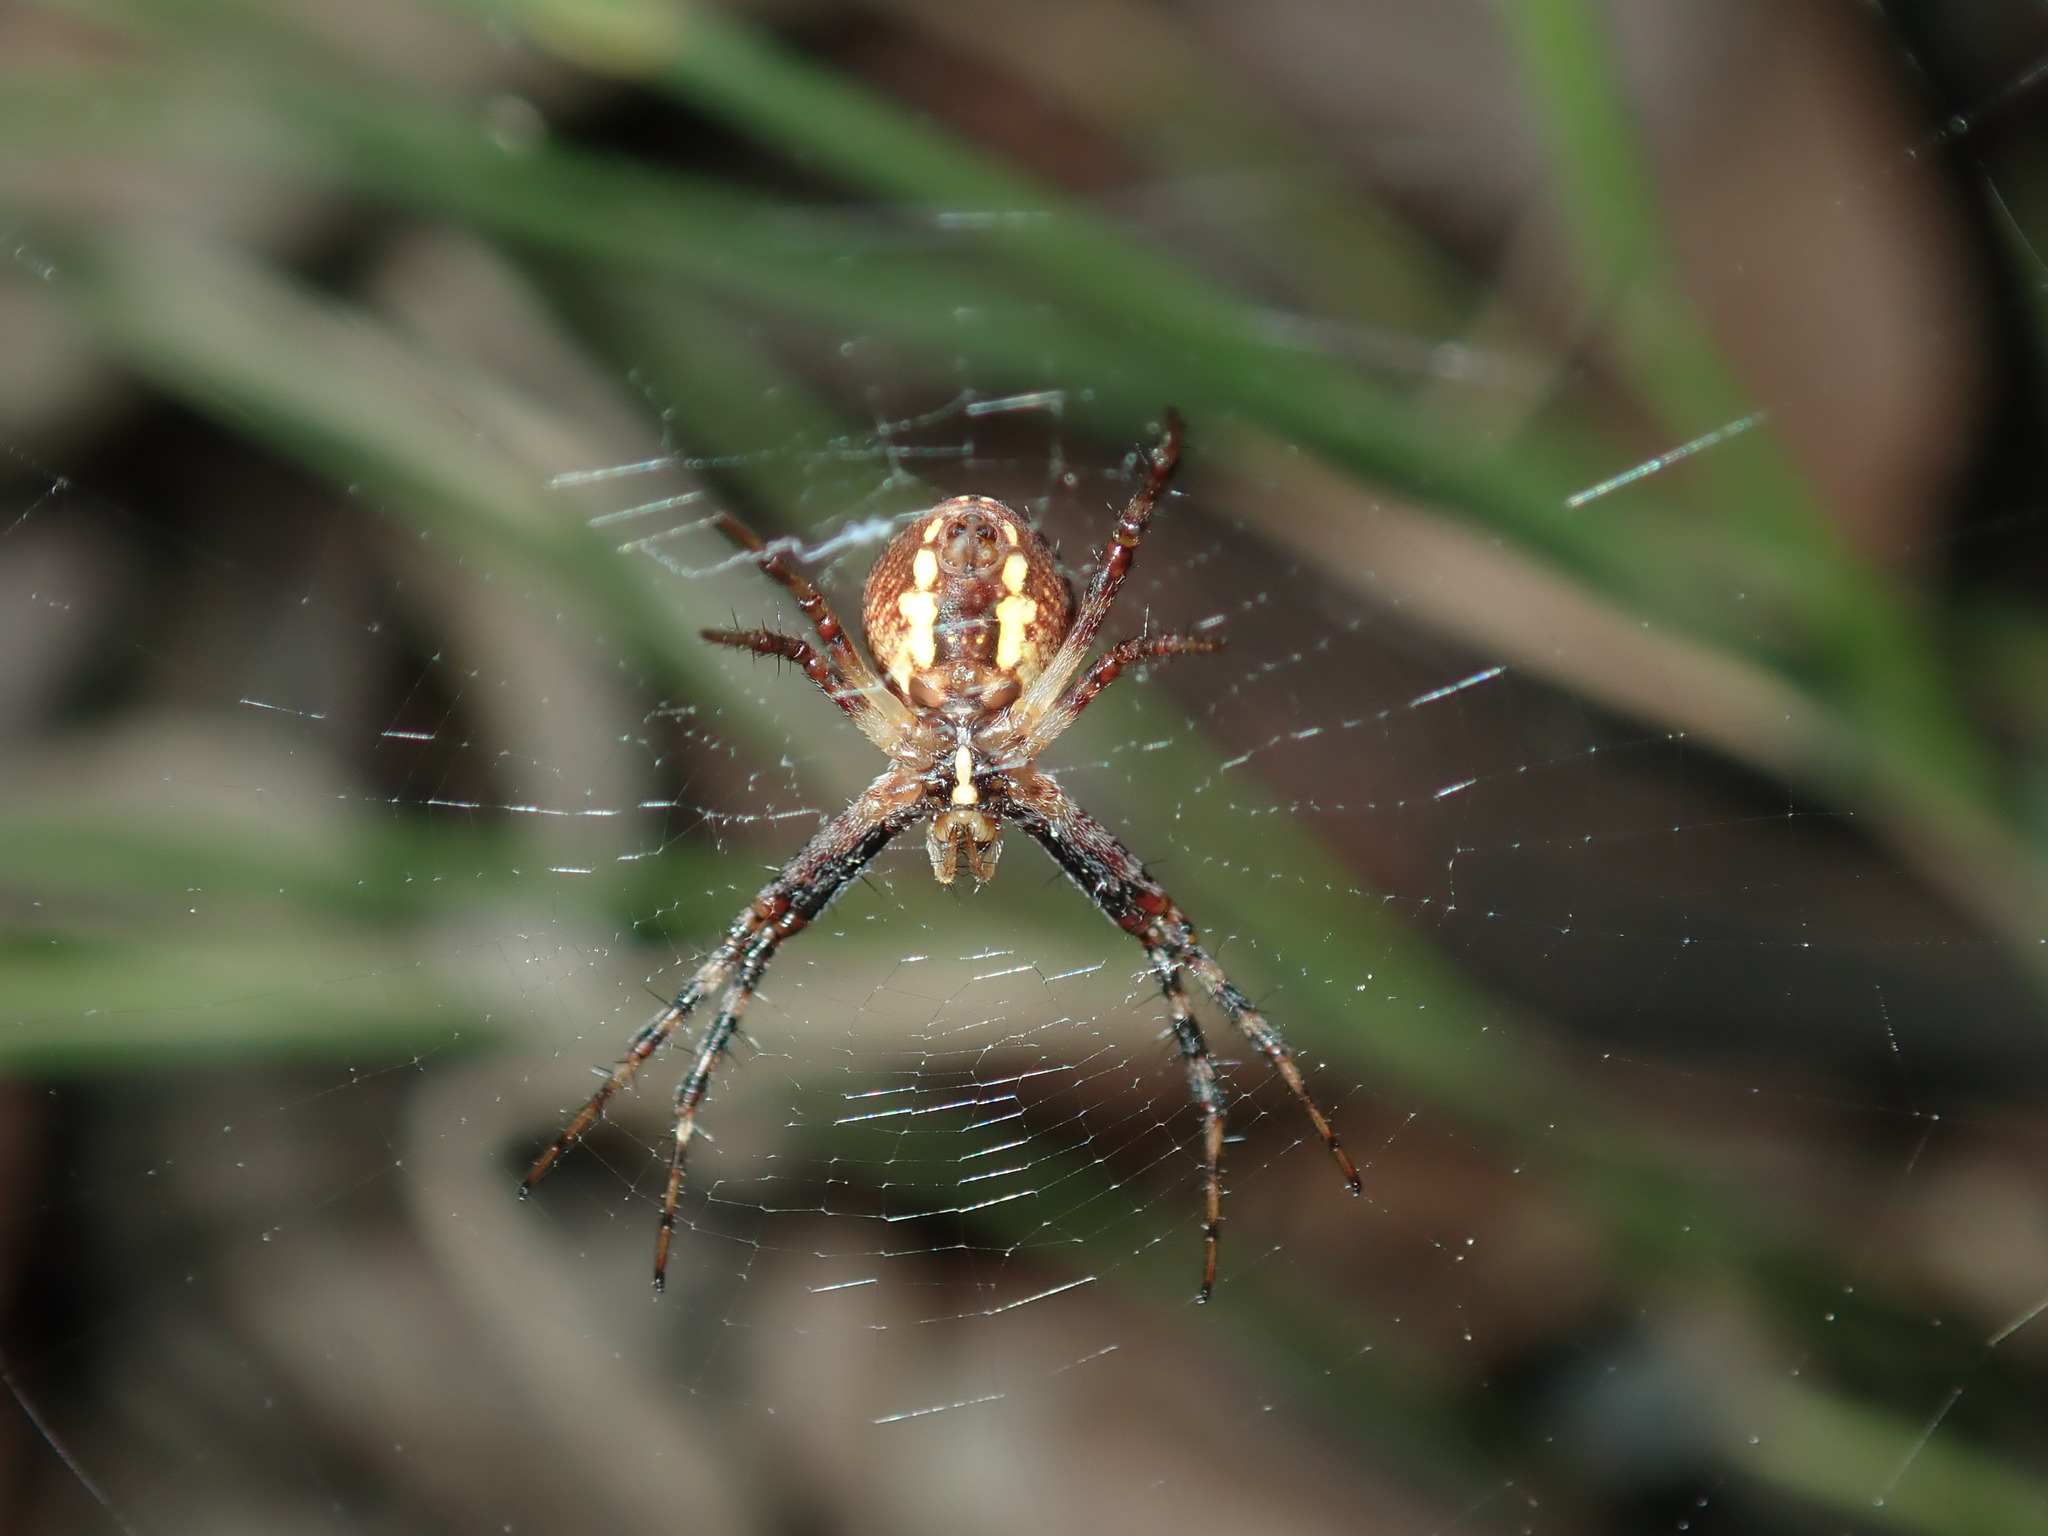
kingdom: Animalia
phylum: Arthropoda
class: Arachnida
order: Araneae
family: Araneidae
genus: Gea
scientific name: Gea theridioides
